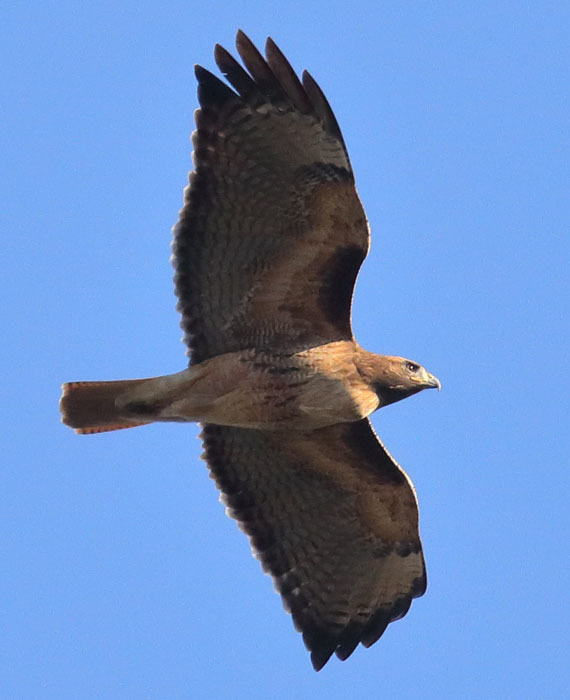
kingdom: Animalia
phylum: Chordata
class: Aves
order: Accipitriformes
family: Accipitridae
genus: Buteo
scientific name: Buteo jamaicensis
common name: Red-tailed hawk
